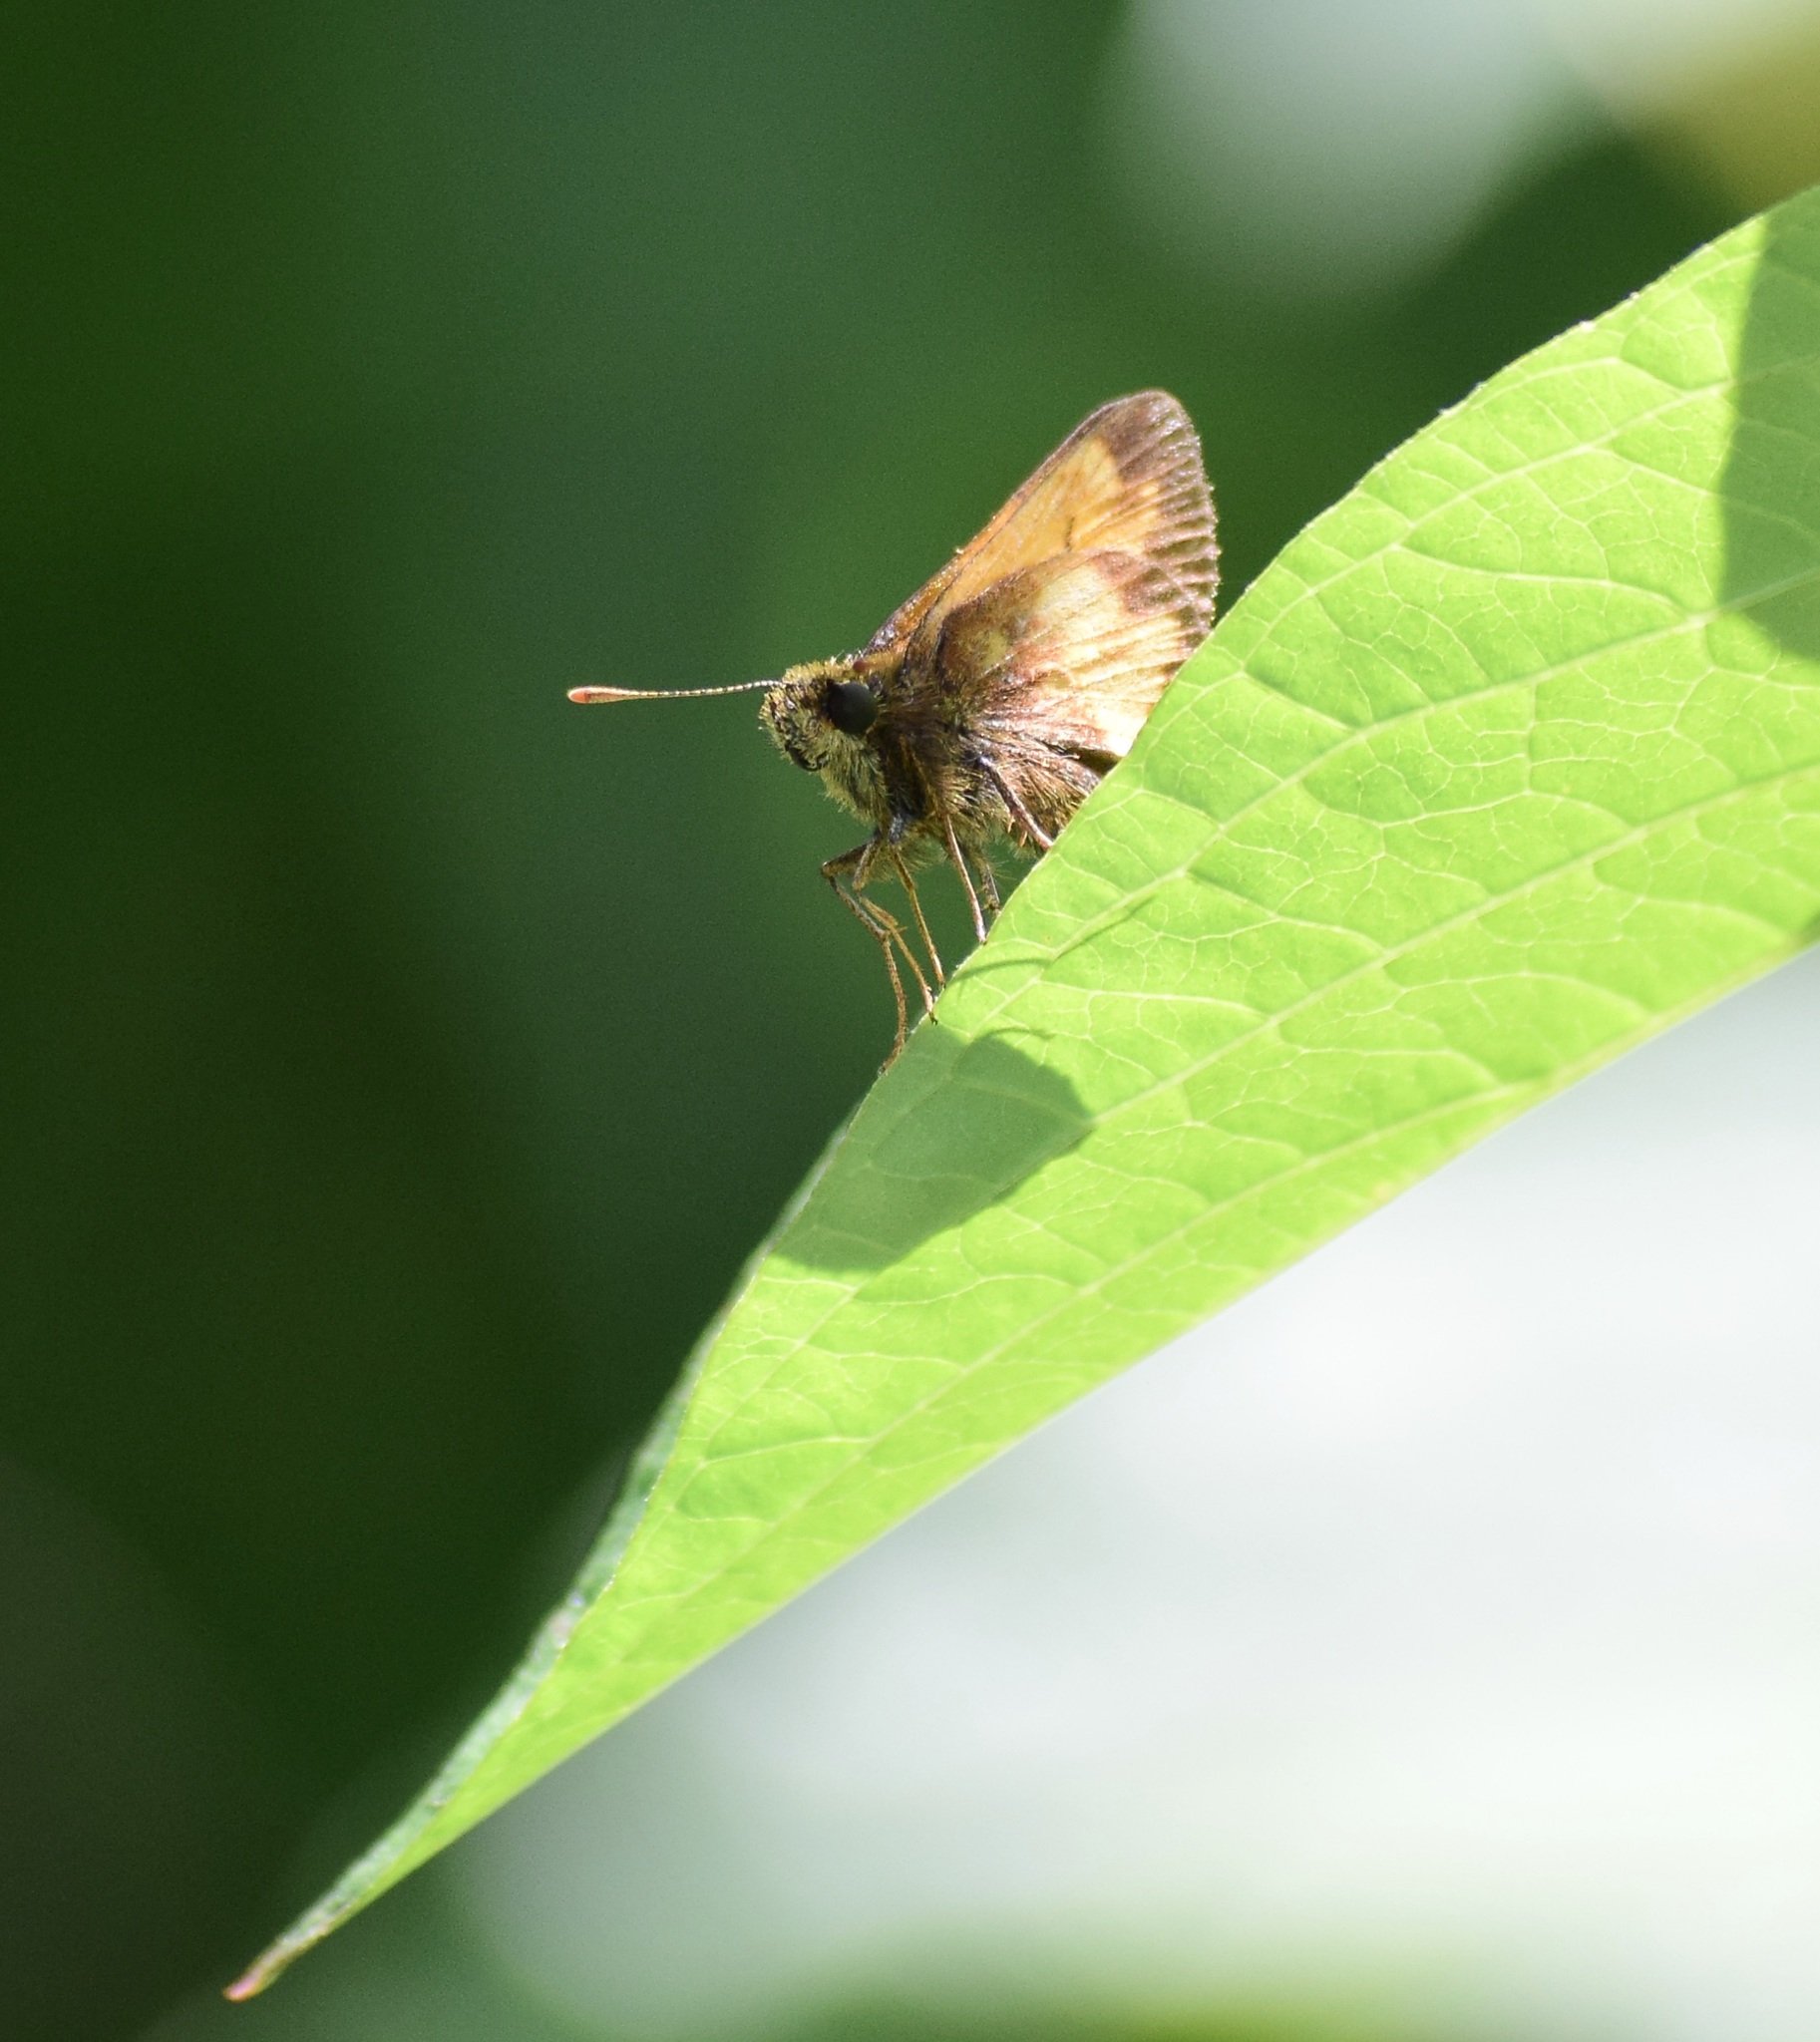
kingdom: Animalia
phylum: Arthropoda
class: Insecta
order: Lepidoptera
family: Hesperiidae
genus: Lon
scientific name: Lon hobomok
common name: Hobomok skipper
